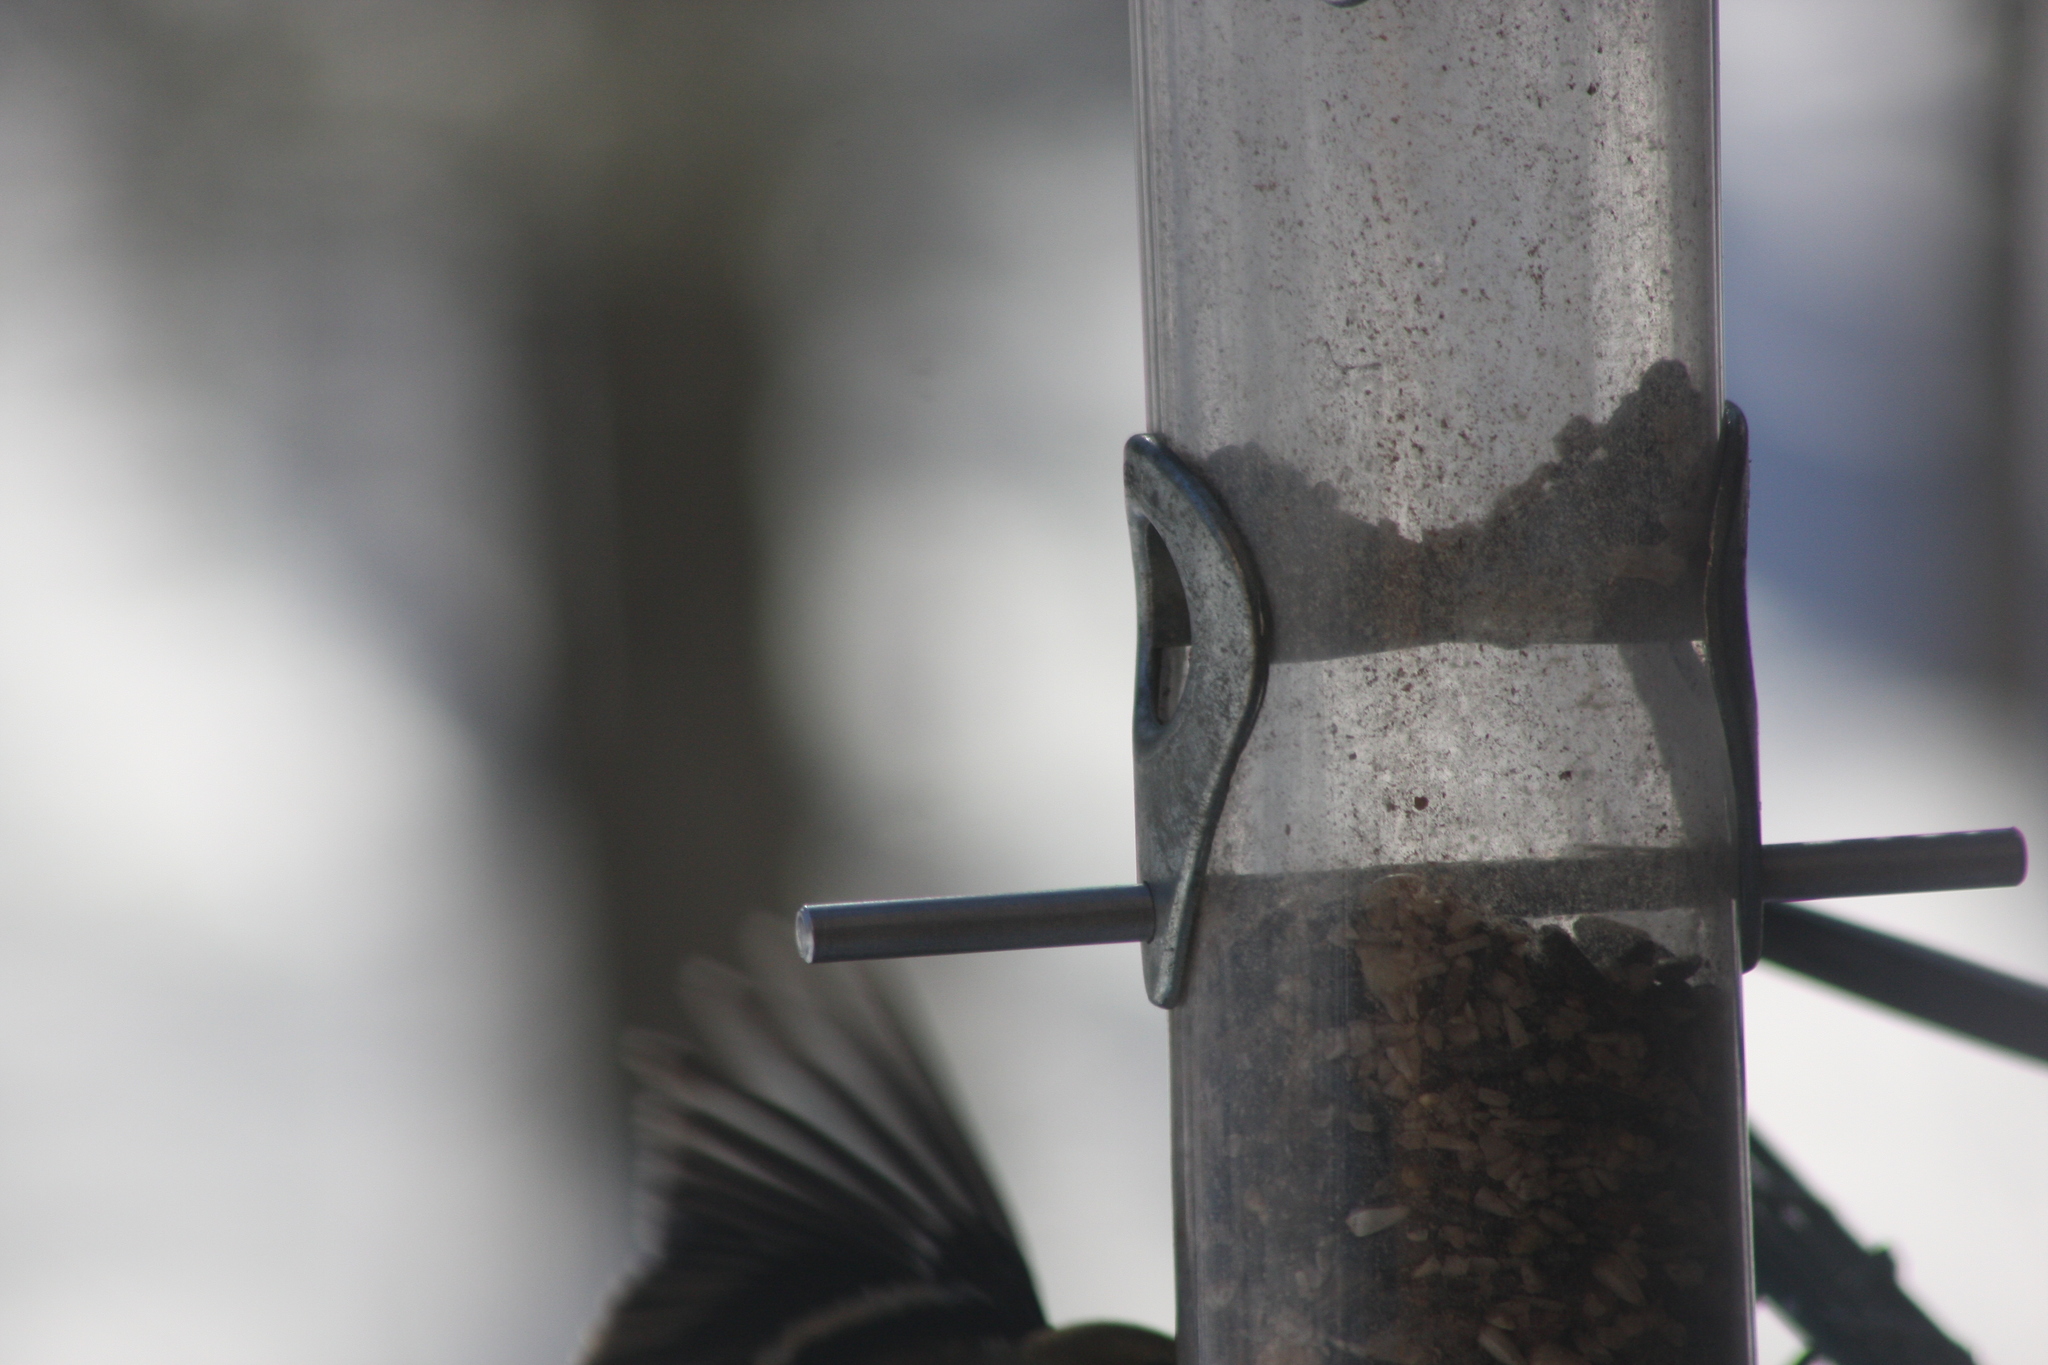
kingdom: Animalia
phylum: Chordata
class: Aves
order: Passeriformes
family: Fringillidae
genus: Spinus
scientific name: Spinus tristis
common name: American goldfinch
